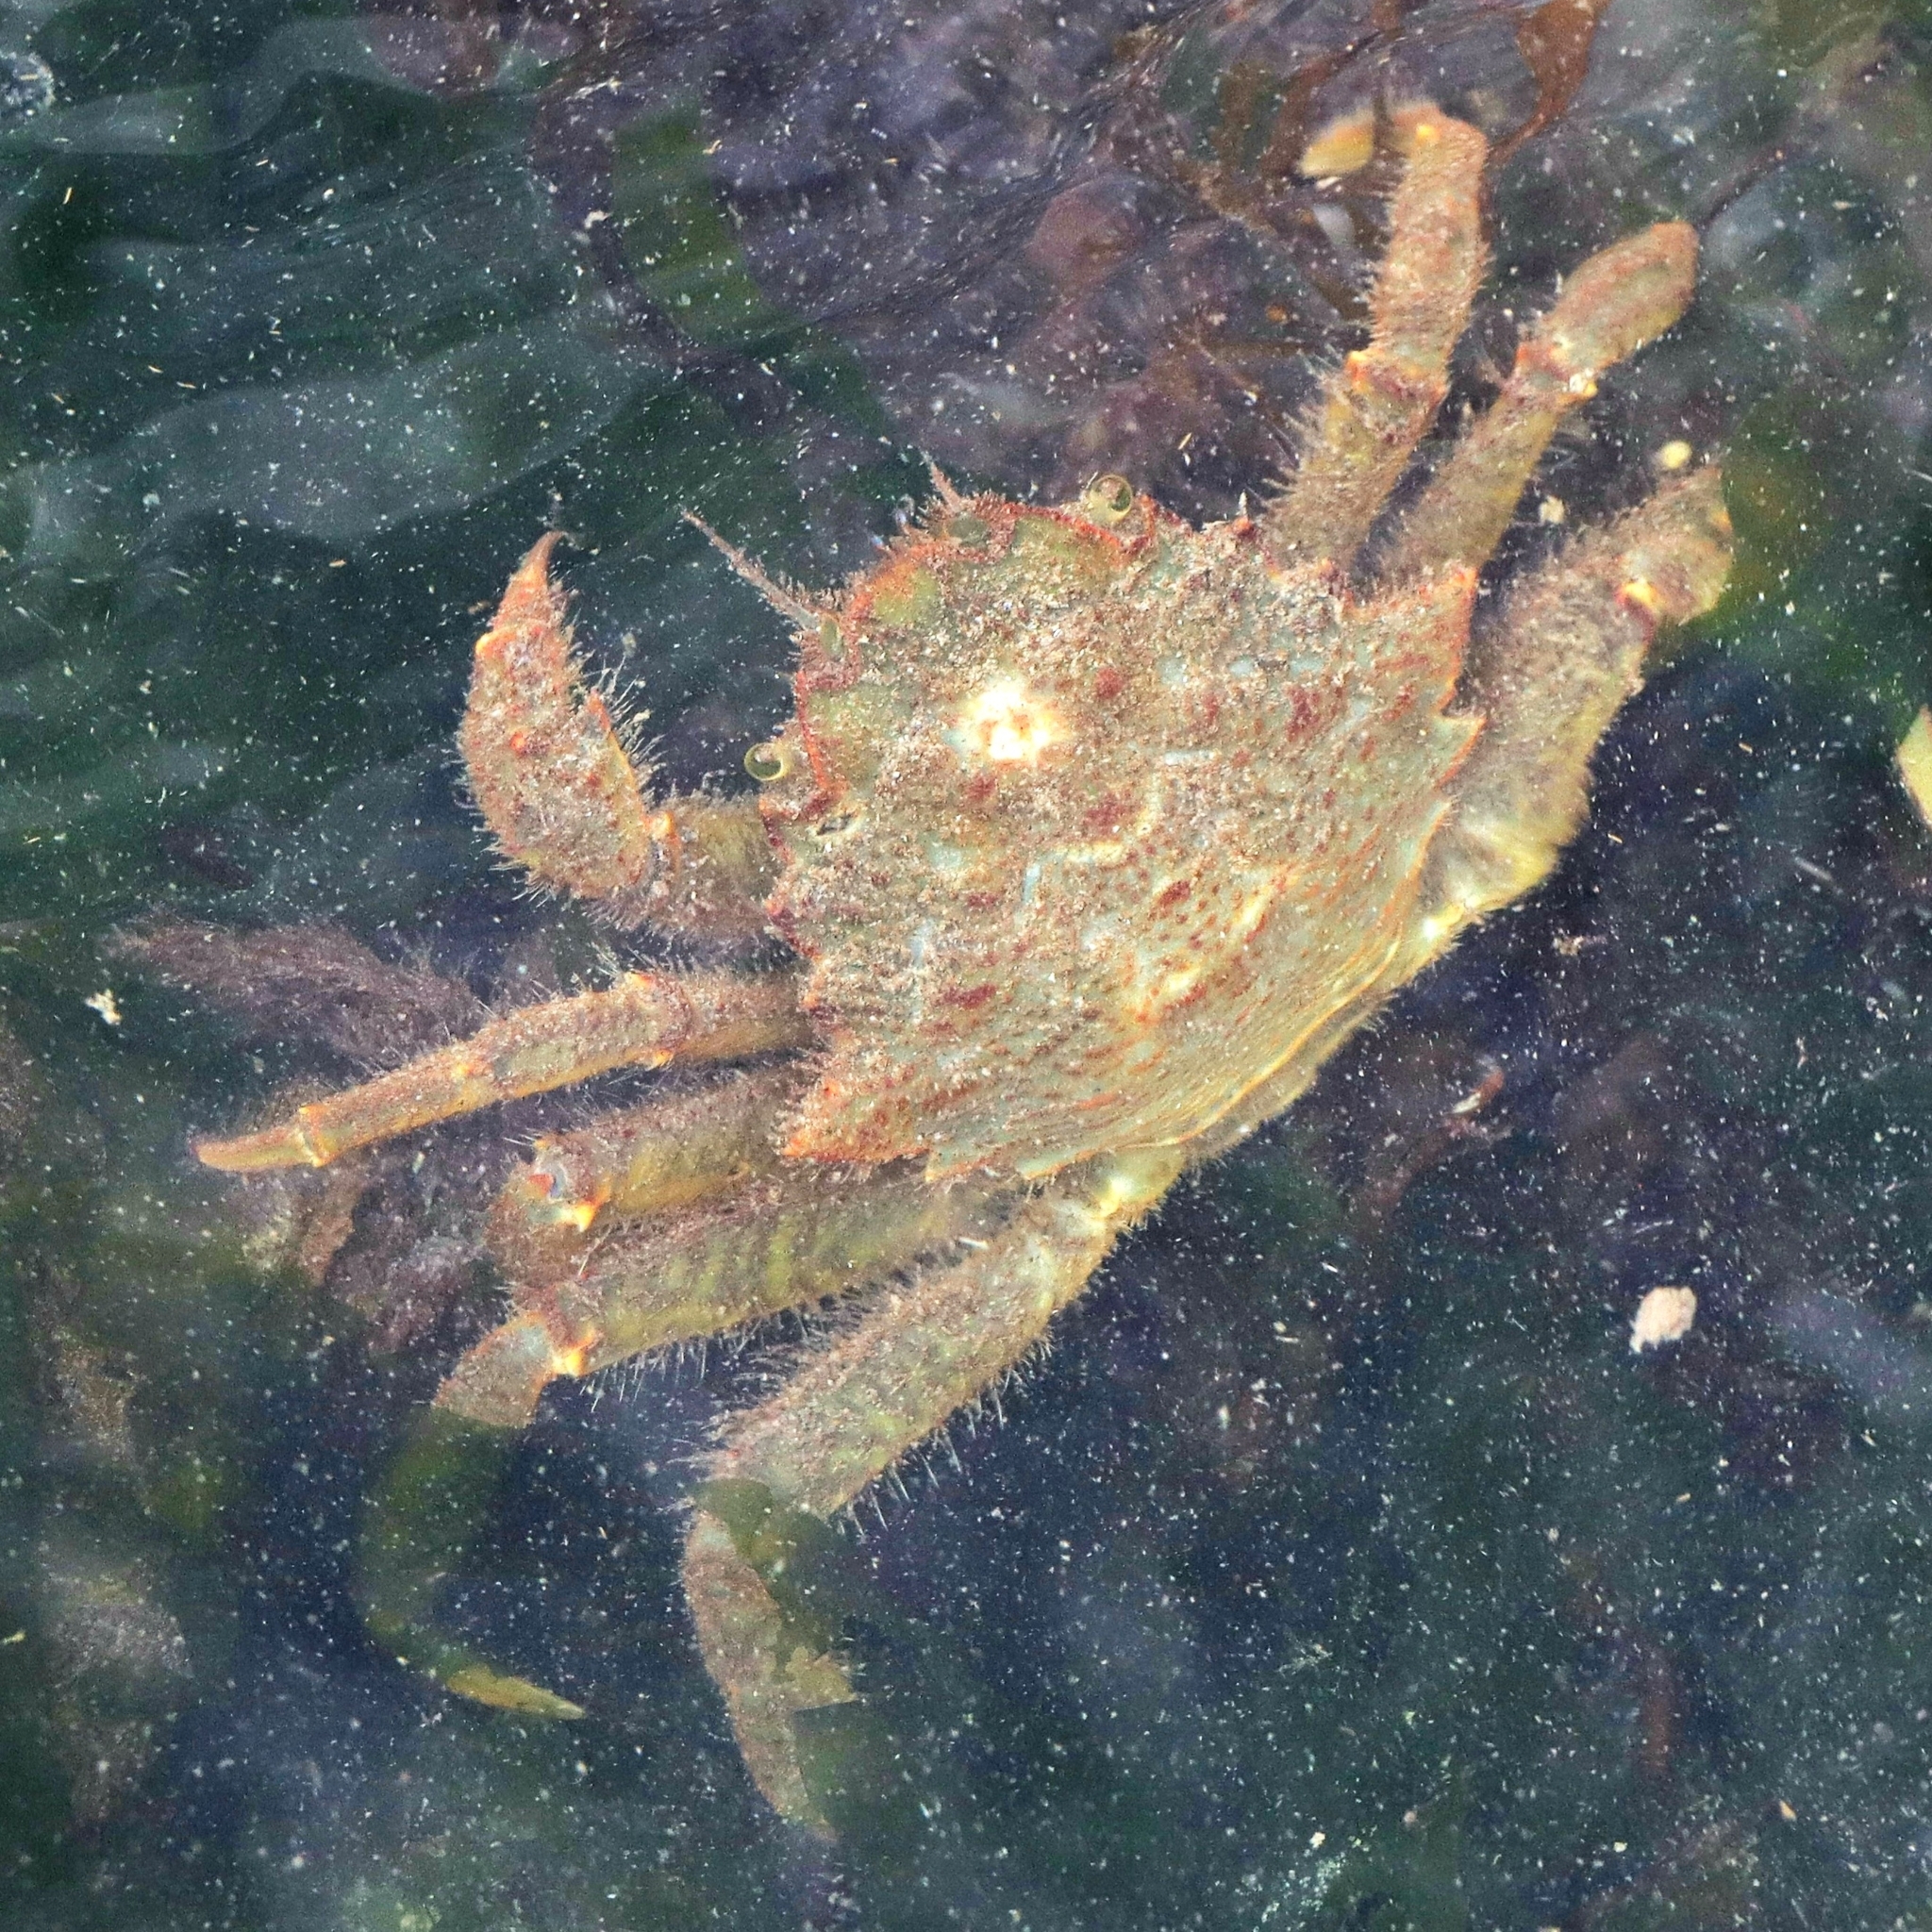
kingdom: Animalia
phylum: Arthropoda
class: Malacostraca
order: Decapoda
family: Cheiragonidae
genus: Telmessus
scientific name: Telmessus cheiragonus
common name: Helmet crab
